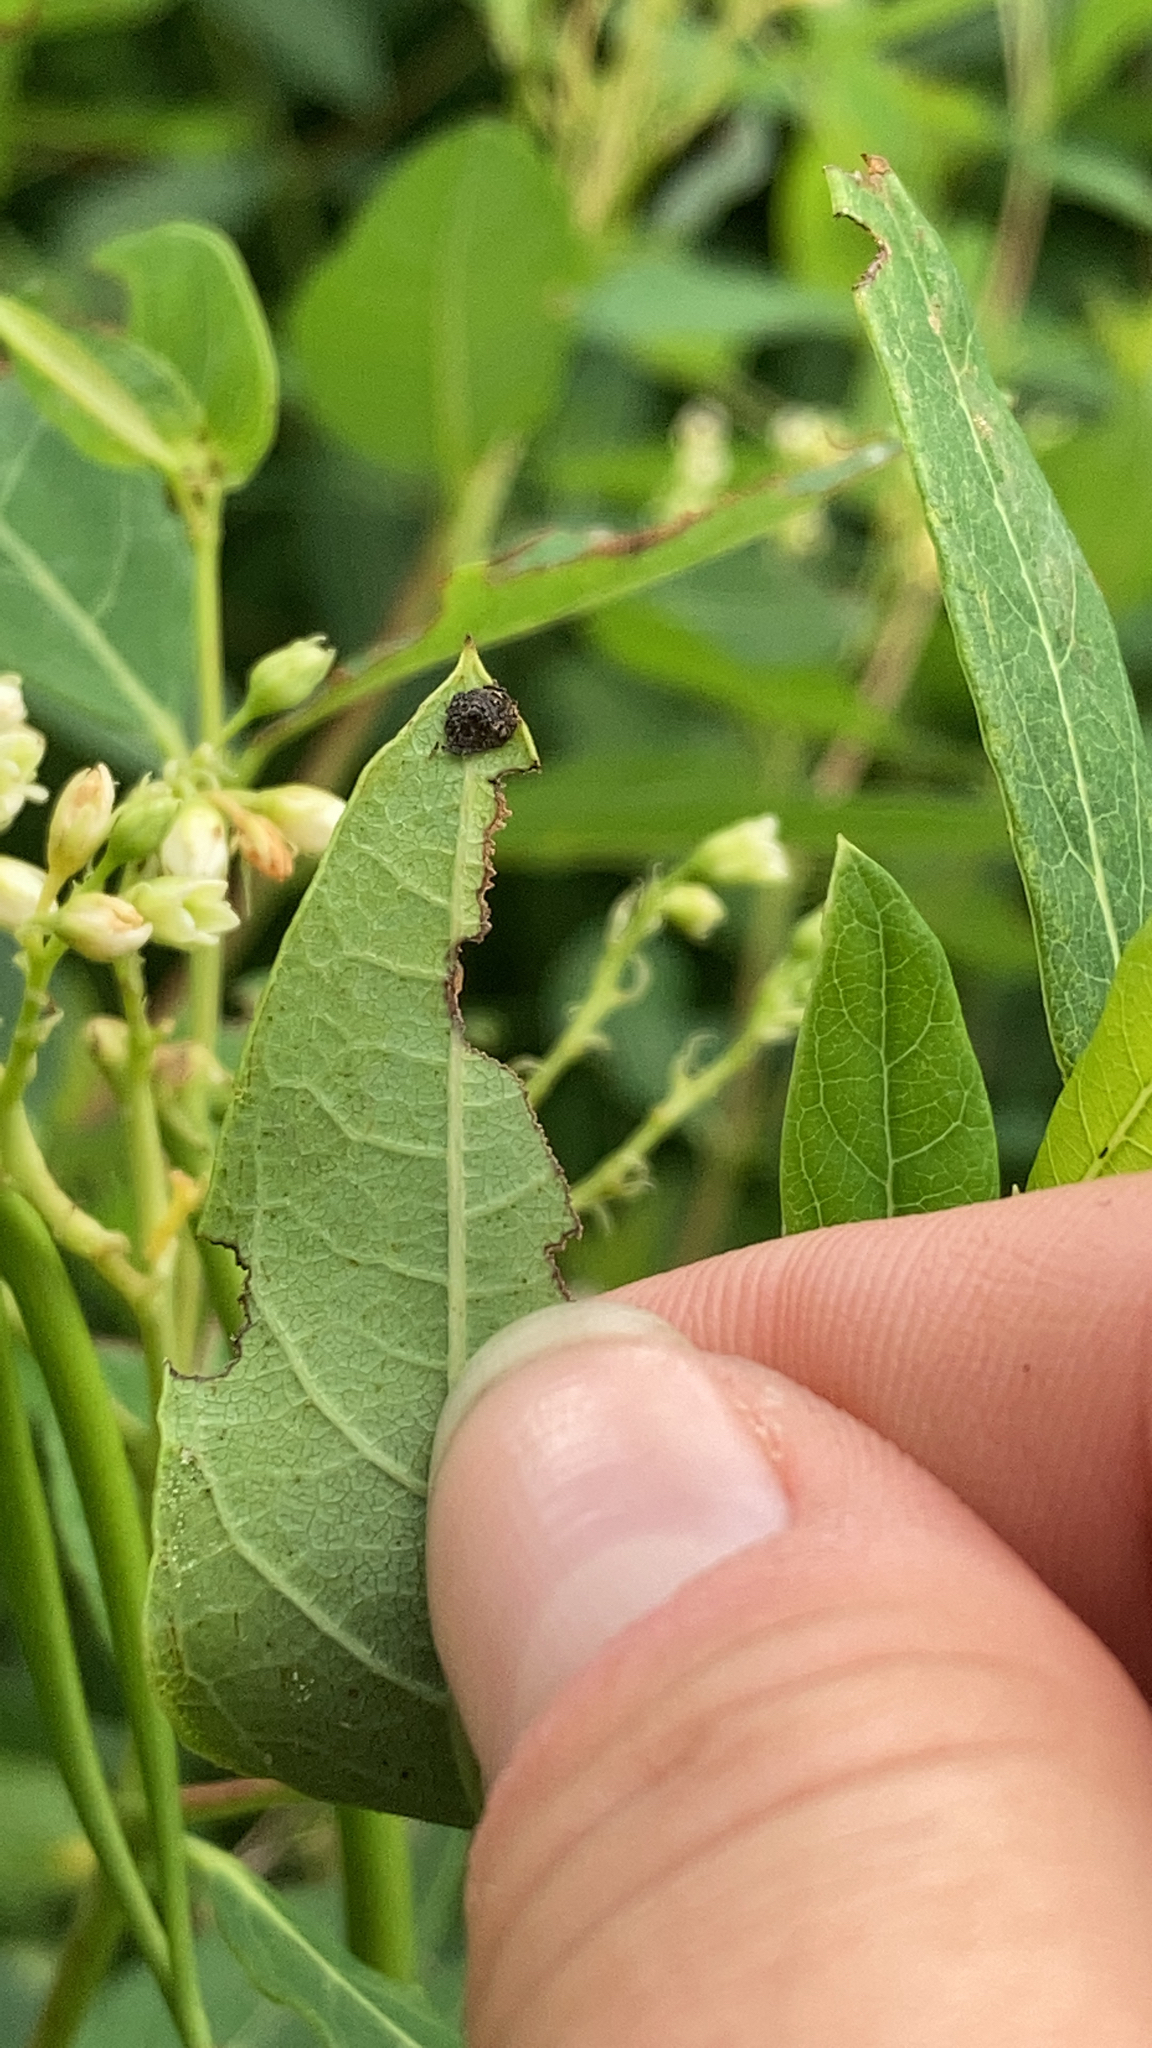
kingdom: Animalia
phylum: Arthropoda
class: Insecta
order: Coleoptera
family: Chrysomelidae
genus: Chrysochus
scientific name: Chrysochus auratus
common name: Dogbane leaf beetle
